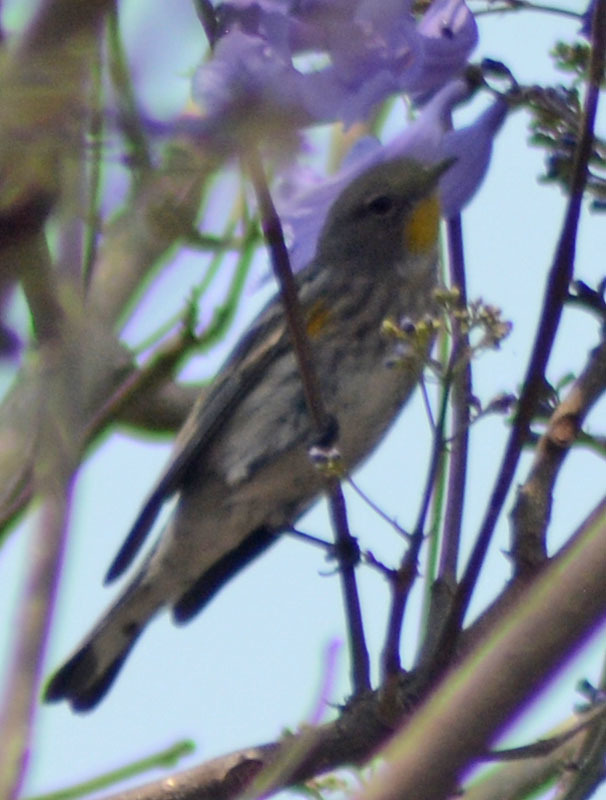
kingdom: Animalia
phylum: Chordata
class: Aves
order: Passeriformes
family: Parulidae
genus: Setophaga
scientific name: Setophaga auduboni
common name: Audubon's warbler
